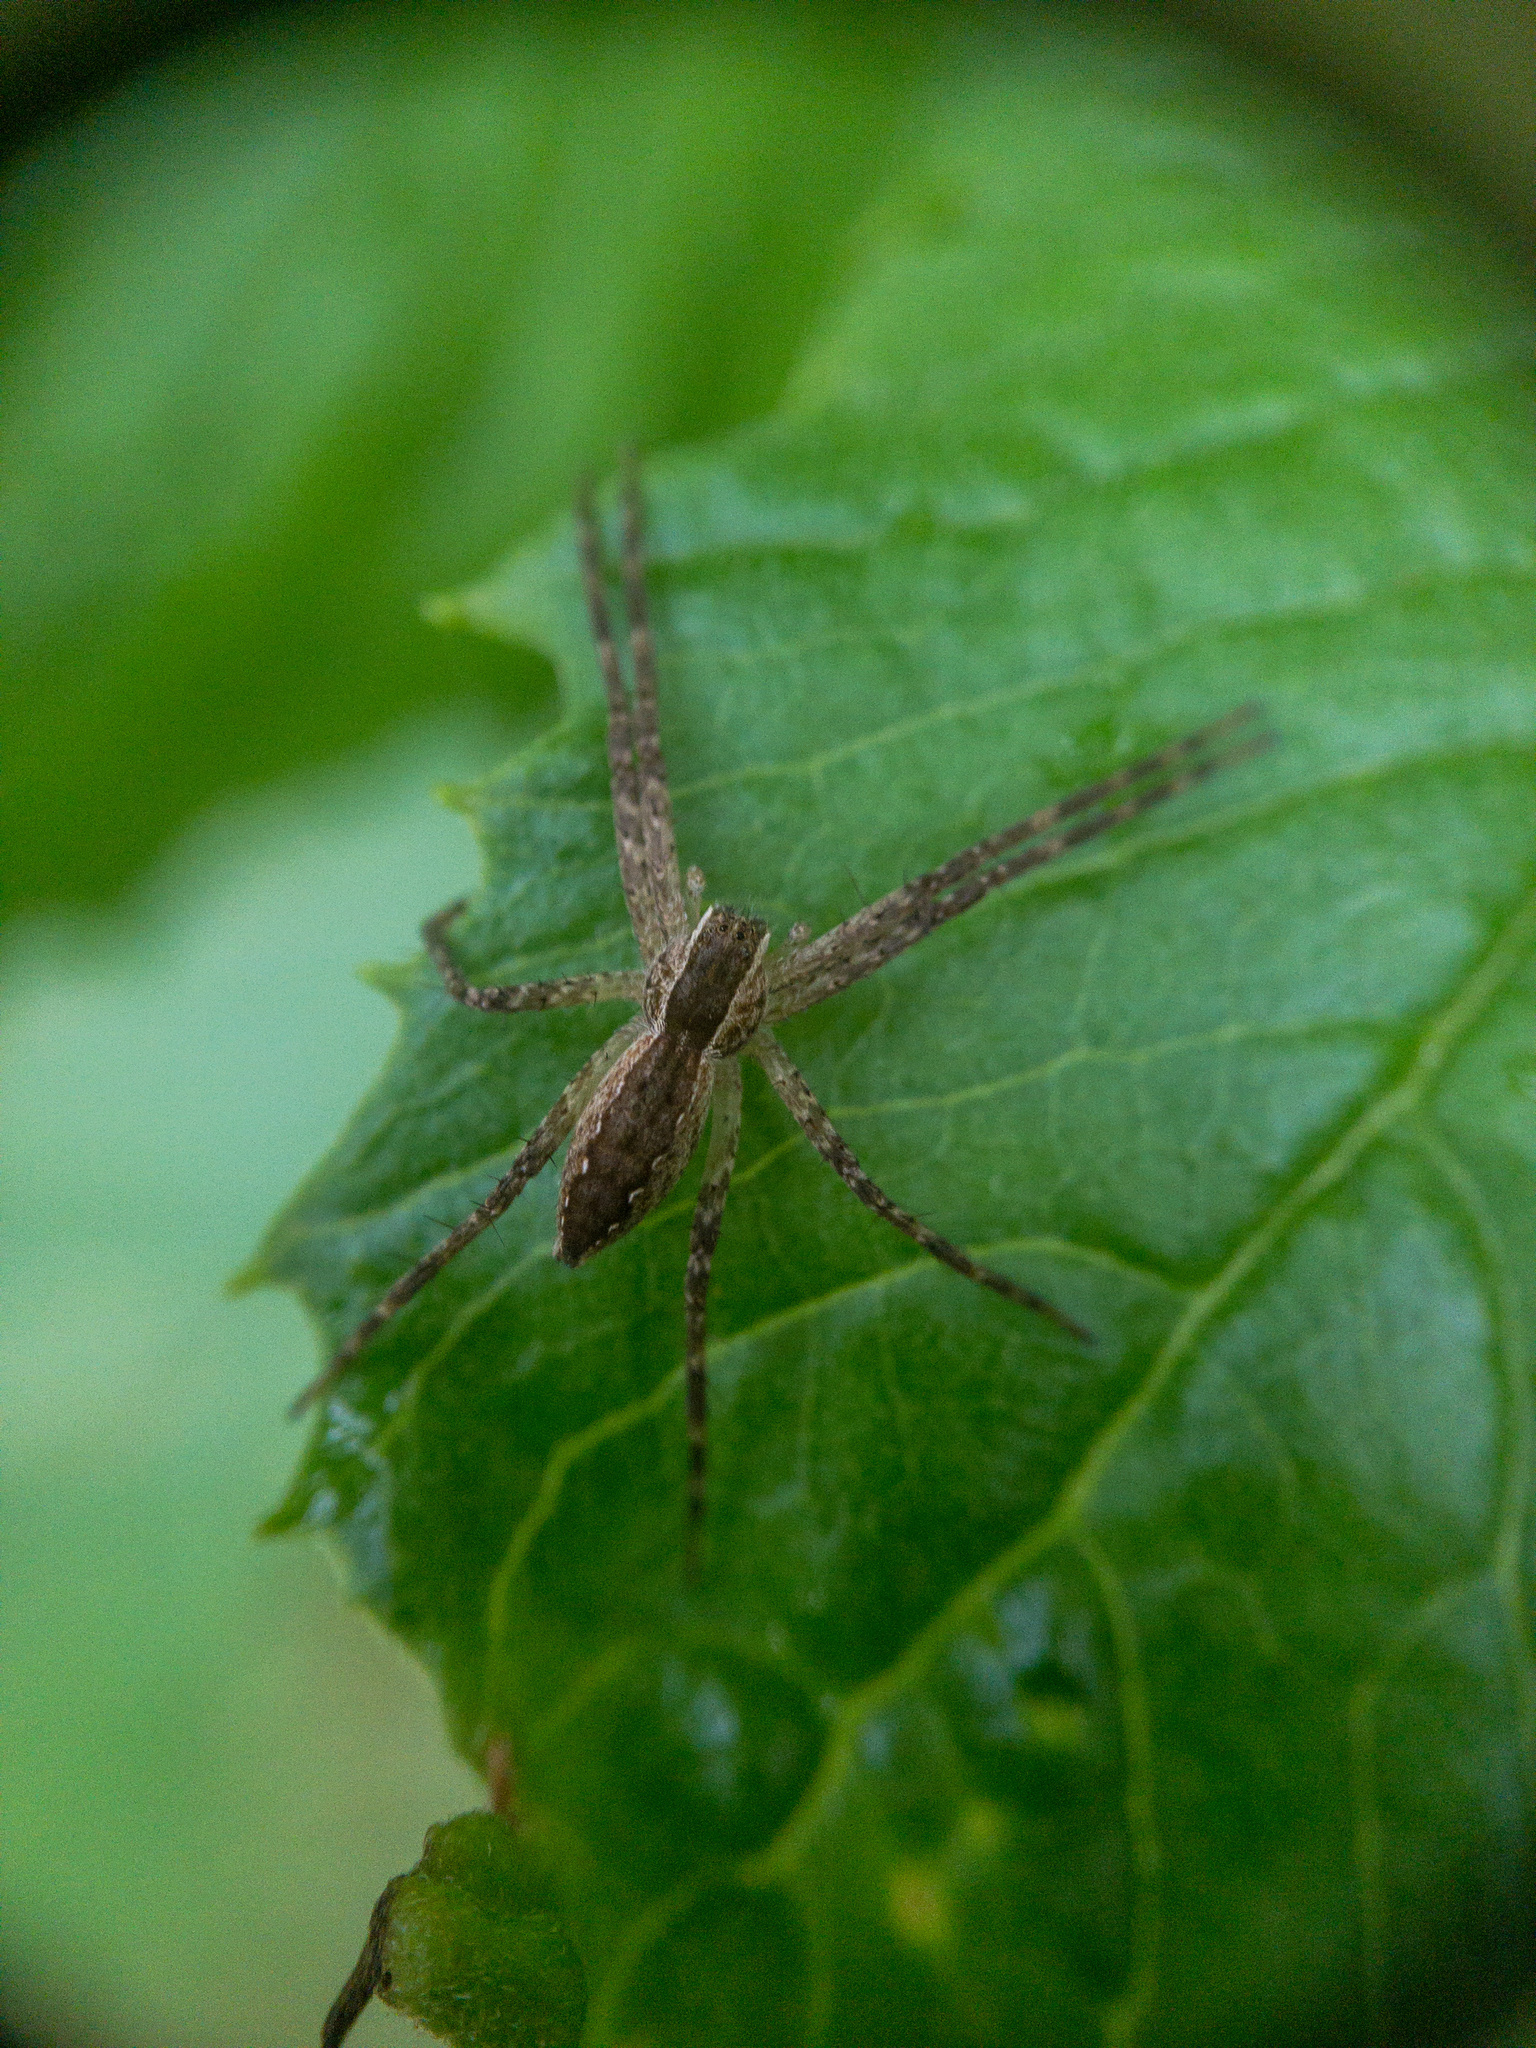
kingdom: Animalia
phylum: Arthropoda
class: Arachnida
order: Araneae
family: Pisauridae
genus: Pisaurina
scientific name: Pisaurina mira
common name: American nursery web spider
